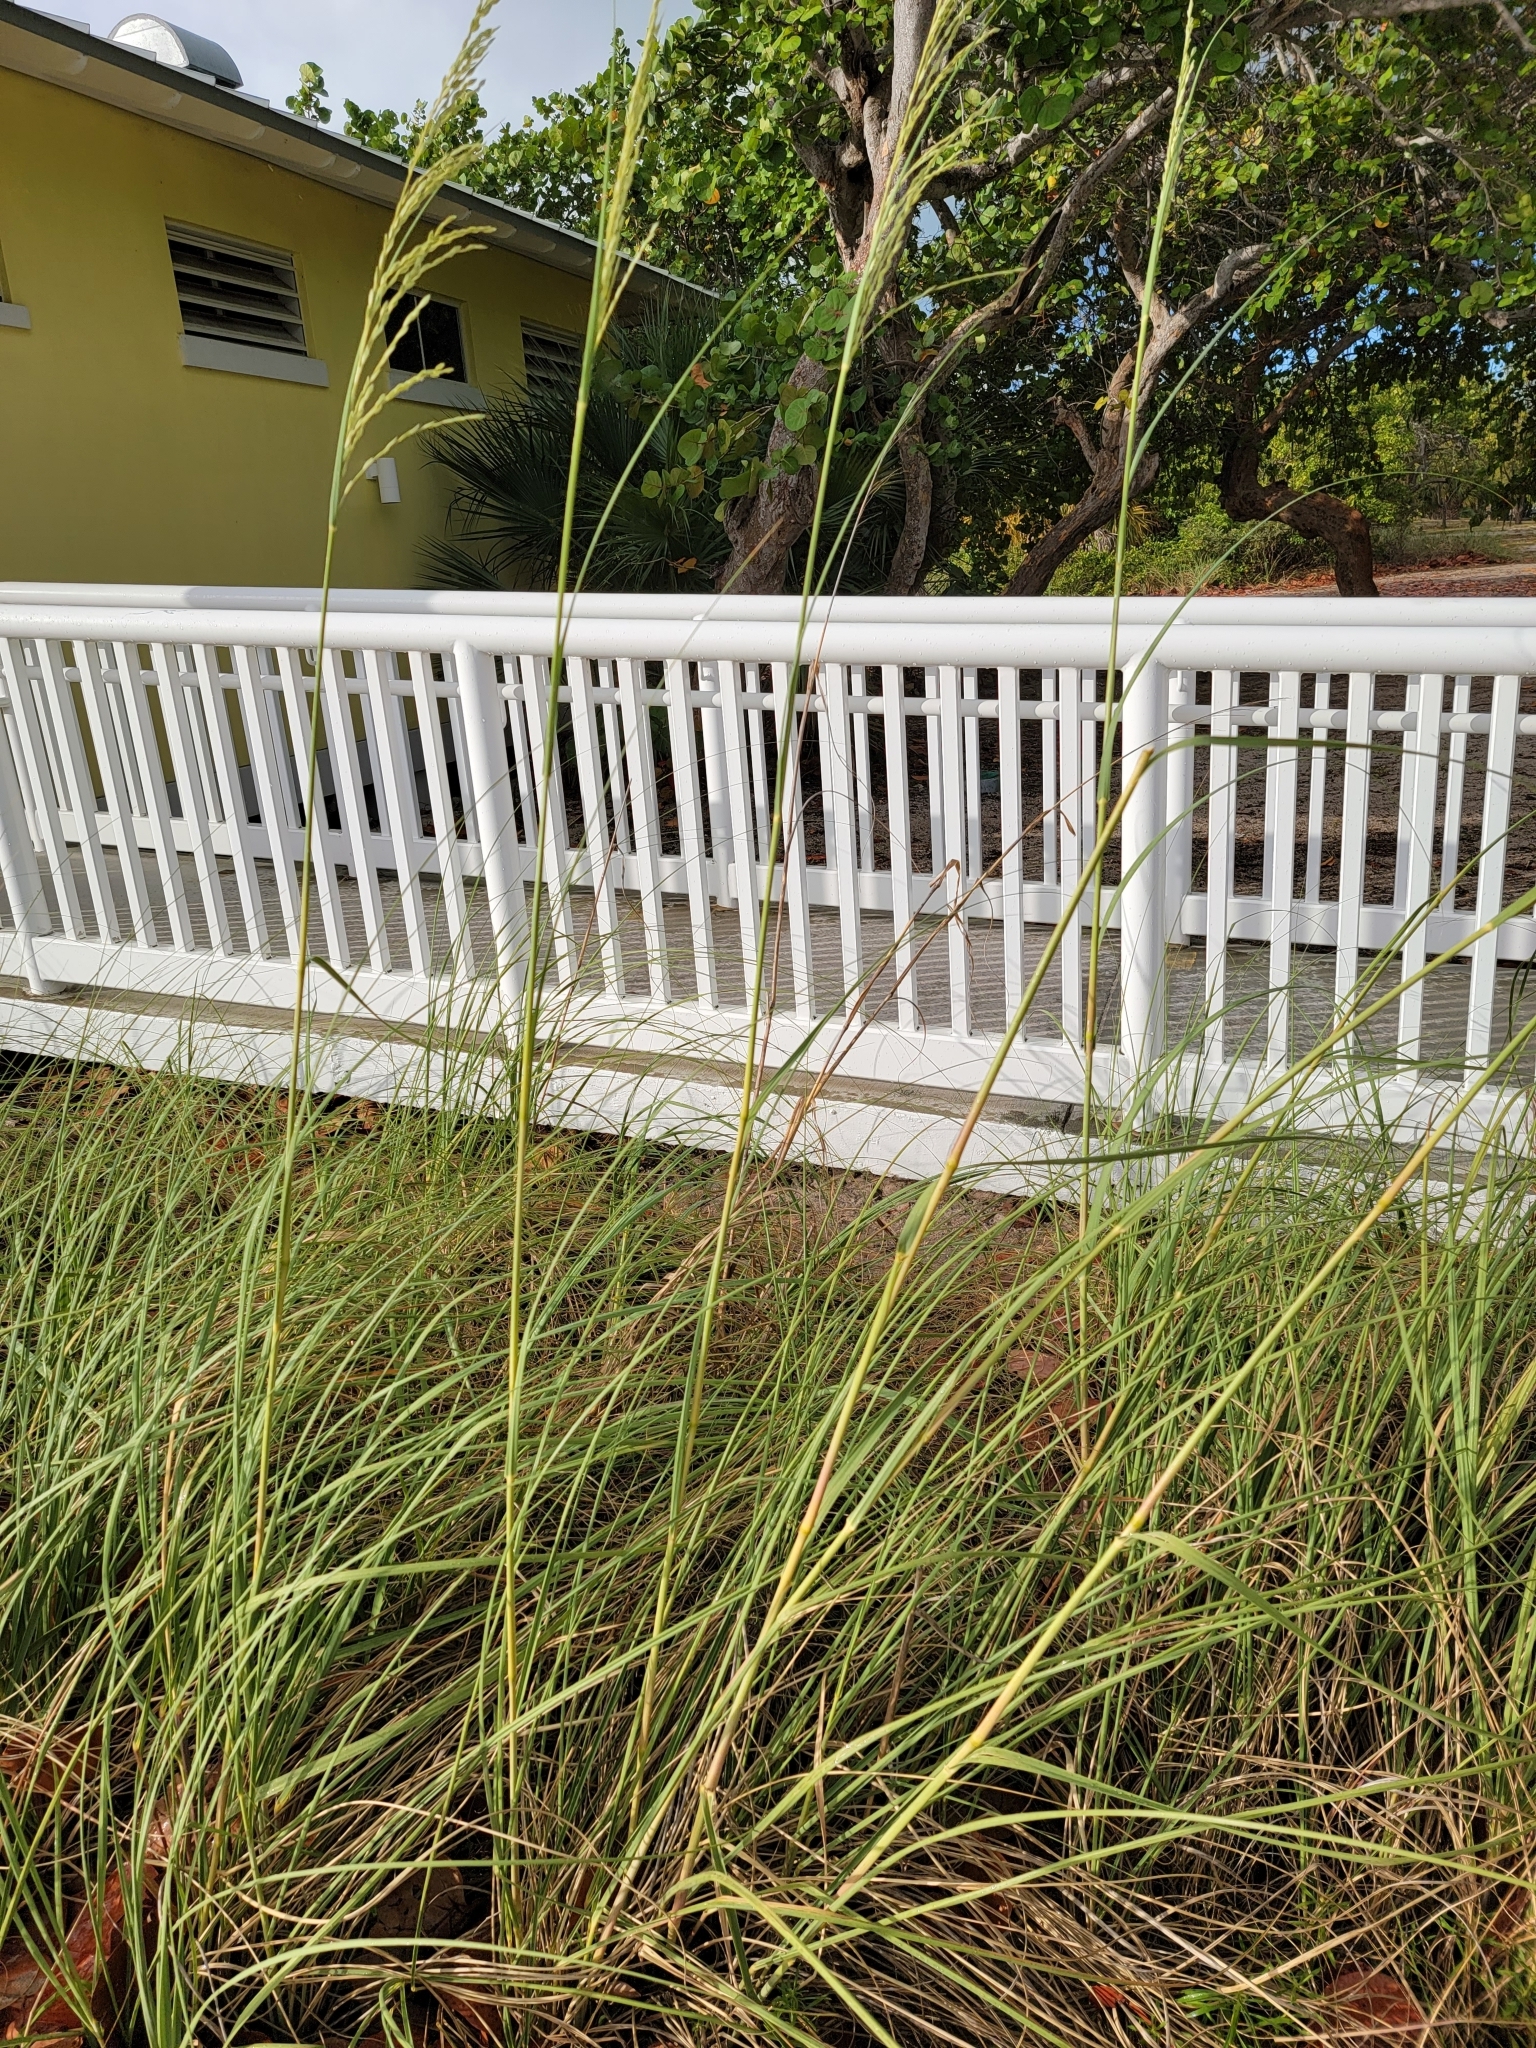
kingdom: Plantae
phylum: Tracheophyta
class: Liliopsida
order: Poales
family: Poaceae
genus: Uniola
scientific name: Uniola paniculata
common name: Seaside-oats
